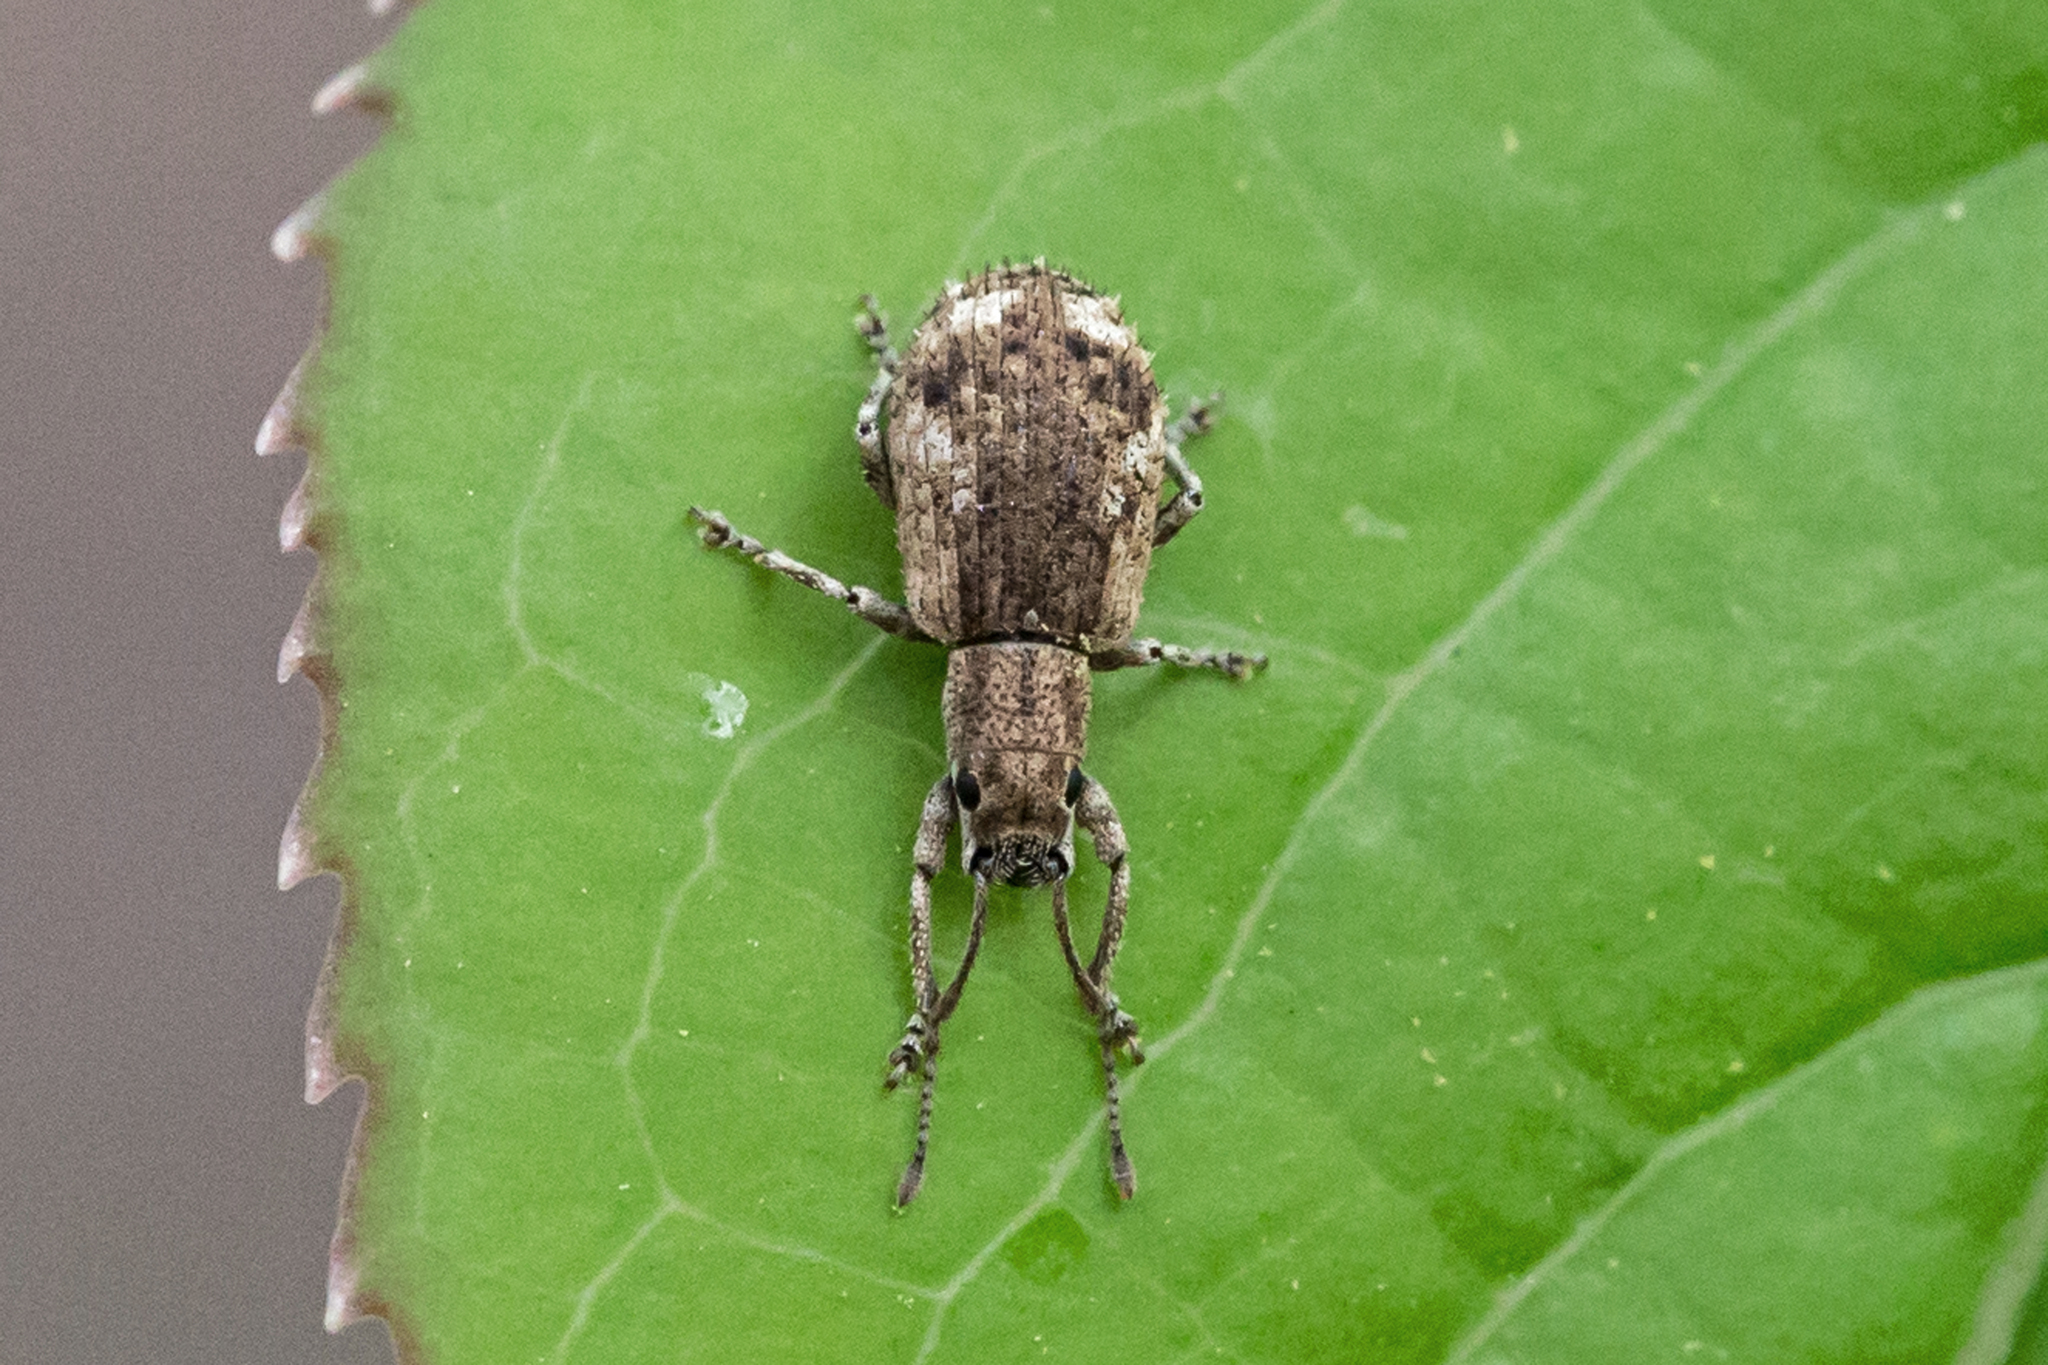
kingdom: Animalia
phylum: Arthropoda
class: Insecta
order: Coleoptera
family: Curculionidae
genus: Pseudoedophrys
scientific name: Pseudoedophrys hilleri
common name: Weevil
